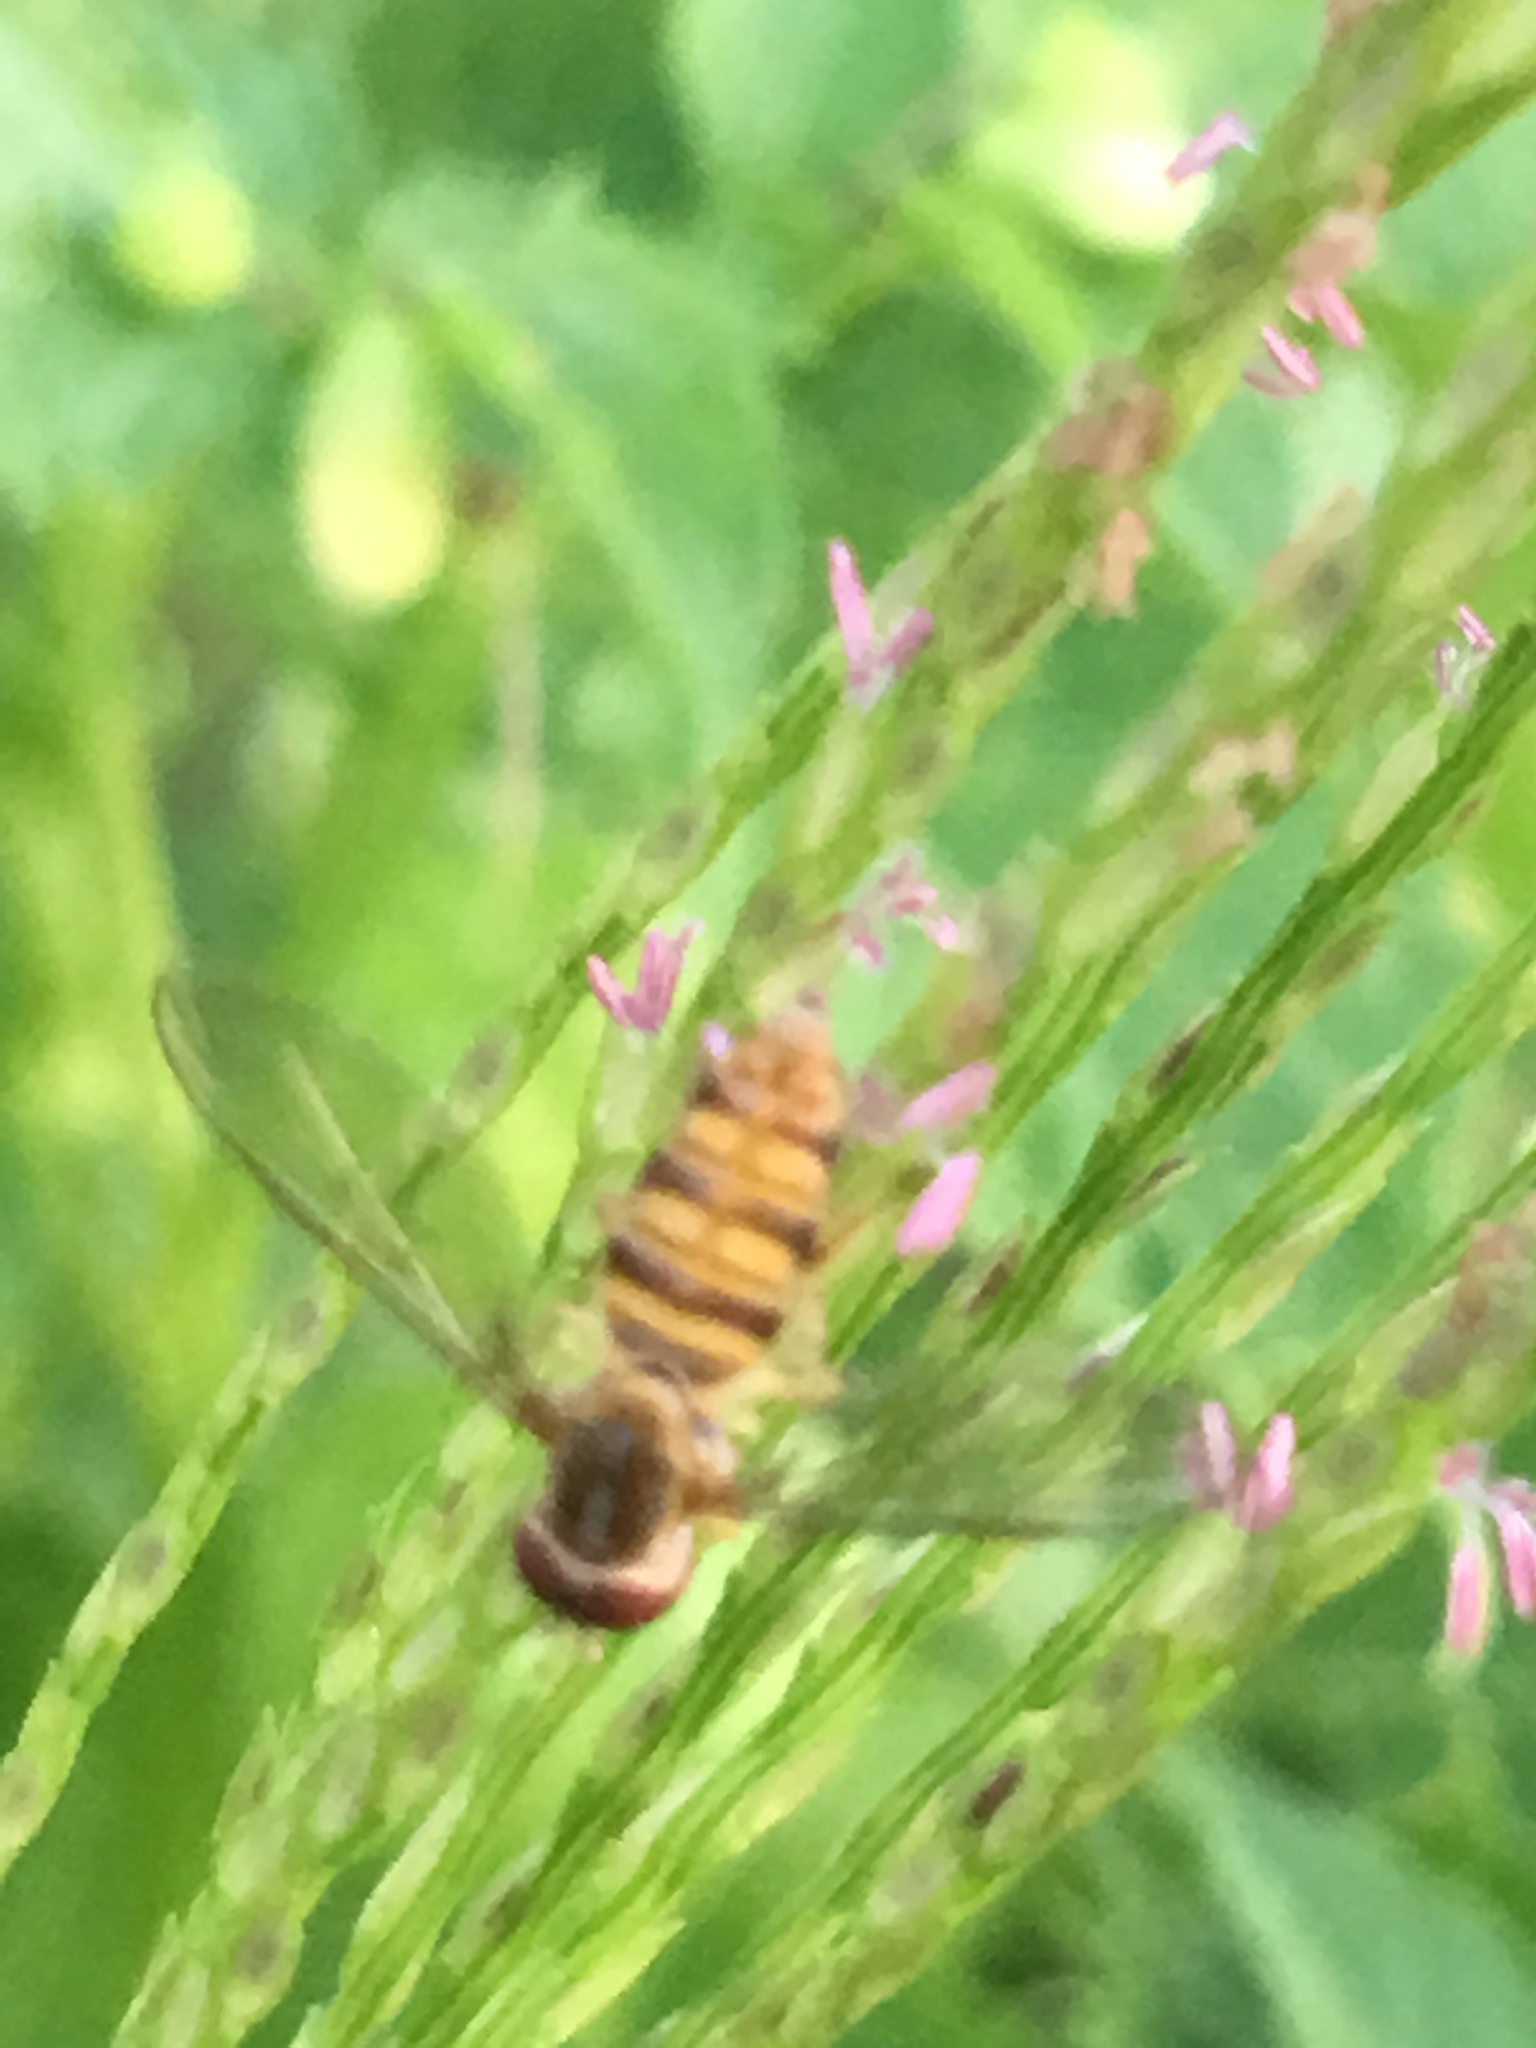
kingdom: Animalia
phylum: Arthropoda
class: Insecta
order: Diptera
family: Syrphidae
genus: Toxomerus
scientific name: Toxomerus politus
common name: Maize calligrapher
